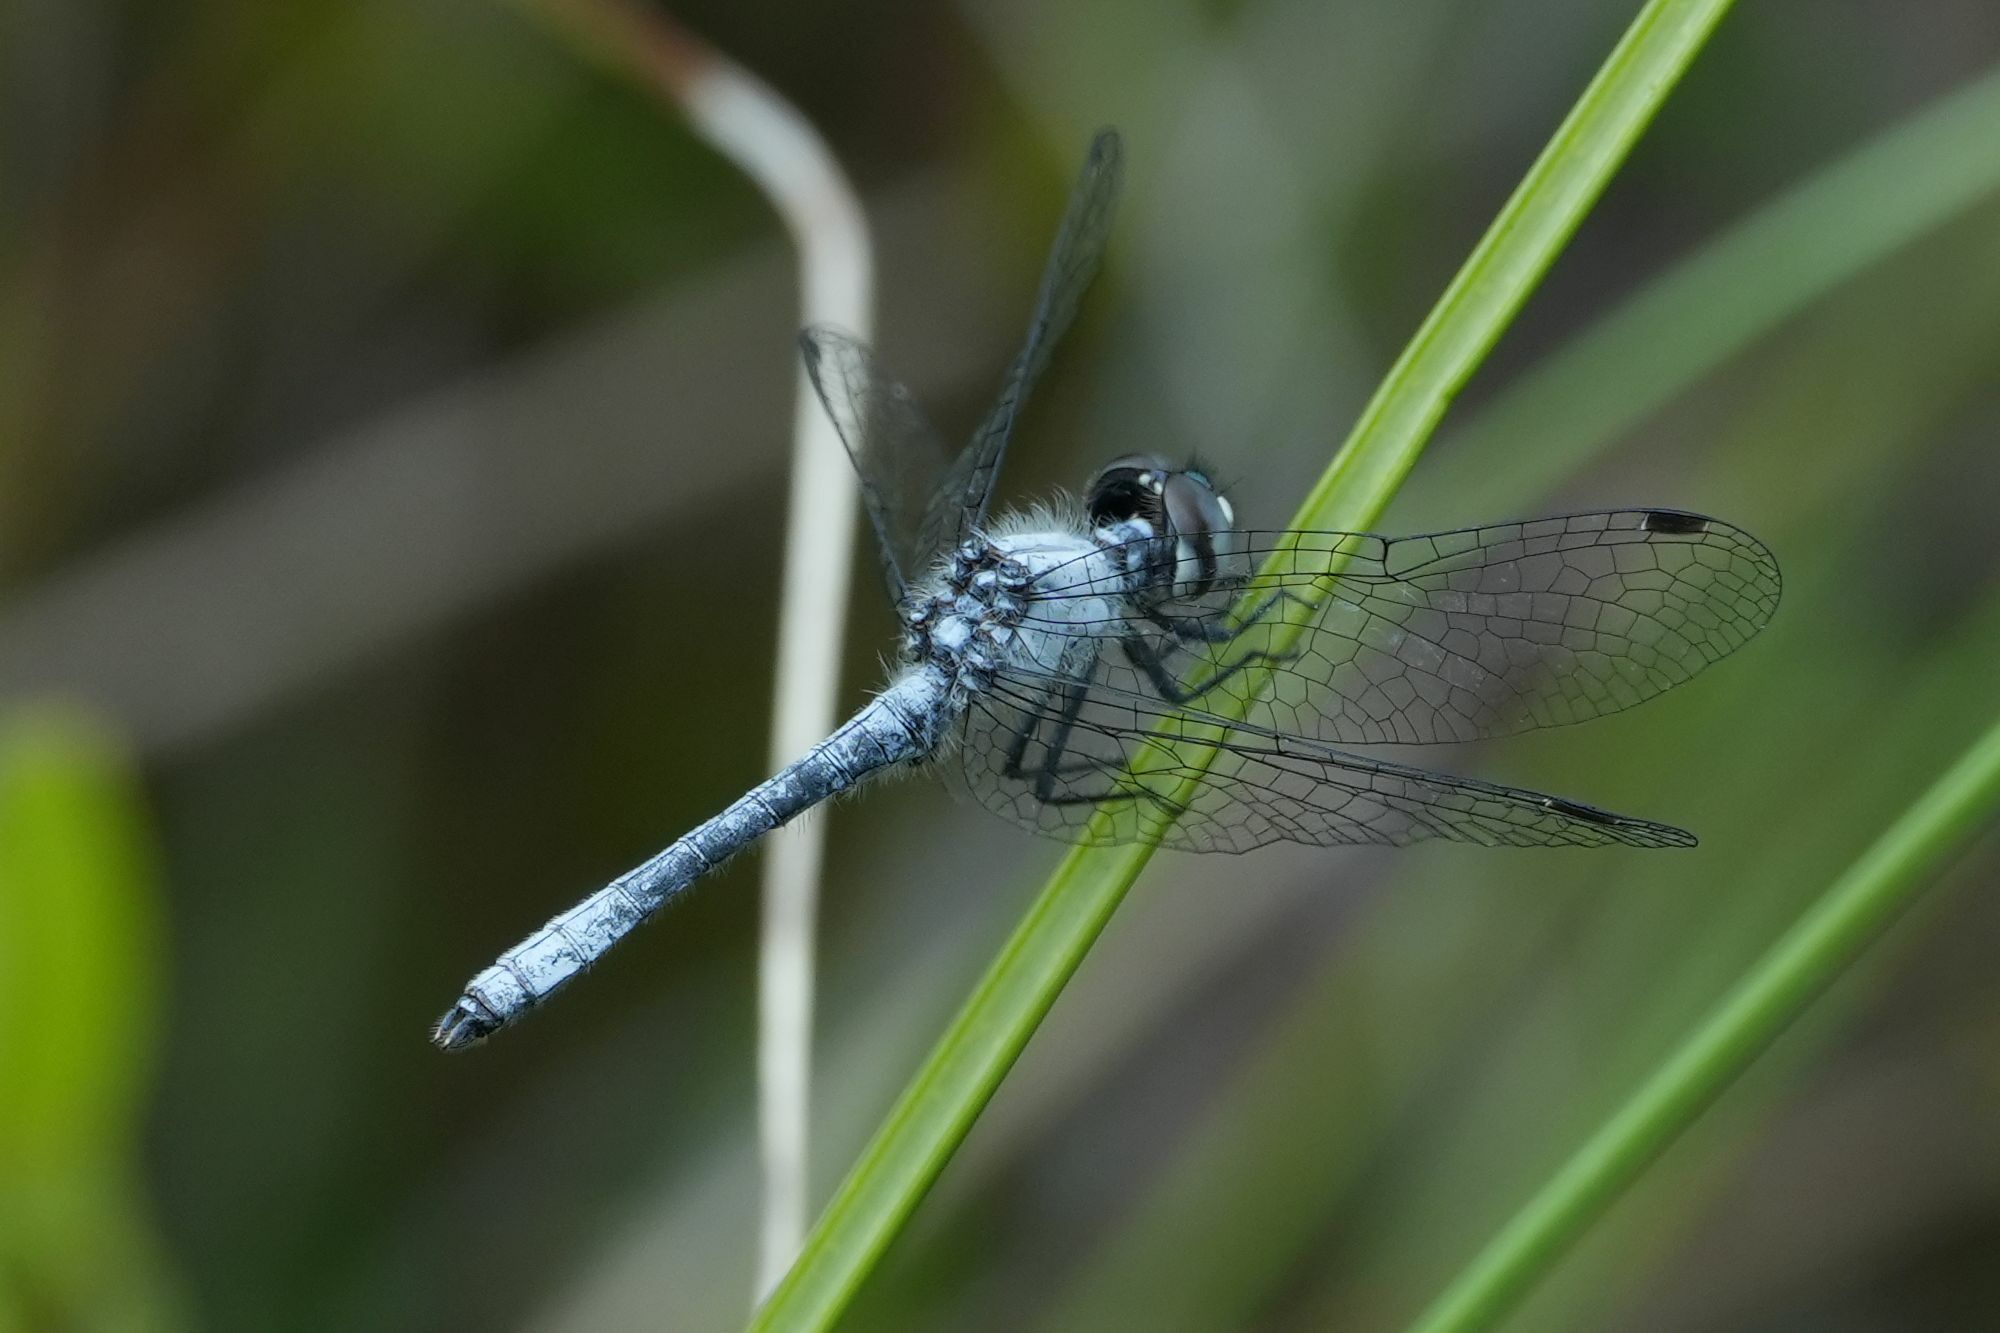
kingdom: Animalia
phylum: Arthropoda
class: Insecta
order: Odonata
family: Libellulidae
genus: Nannothemis
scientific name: Nannothemis bella
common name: Elfin skimmer
